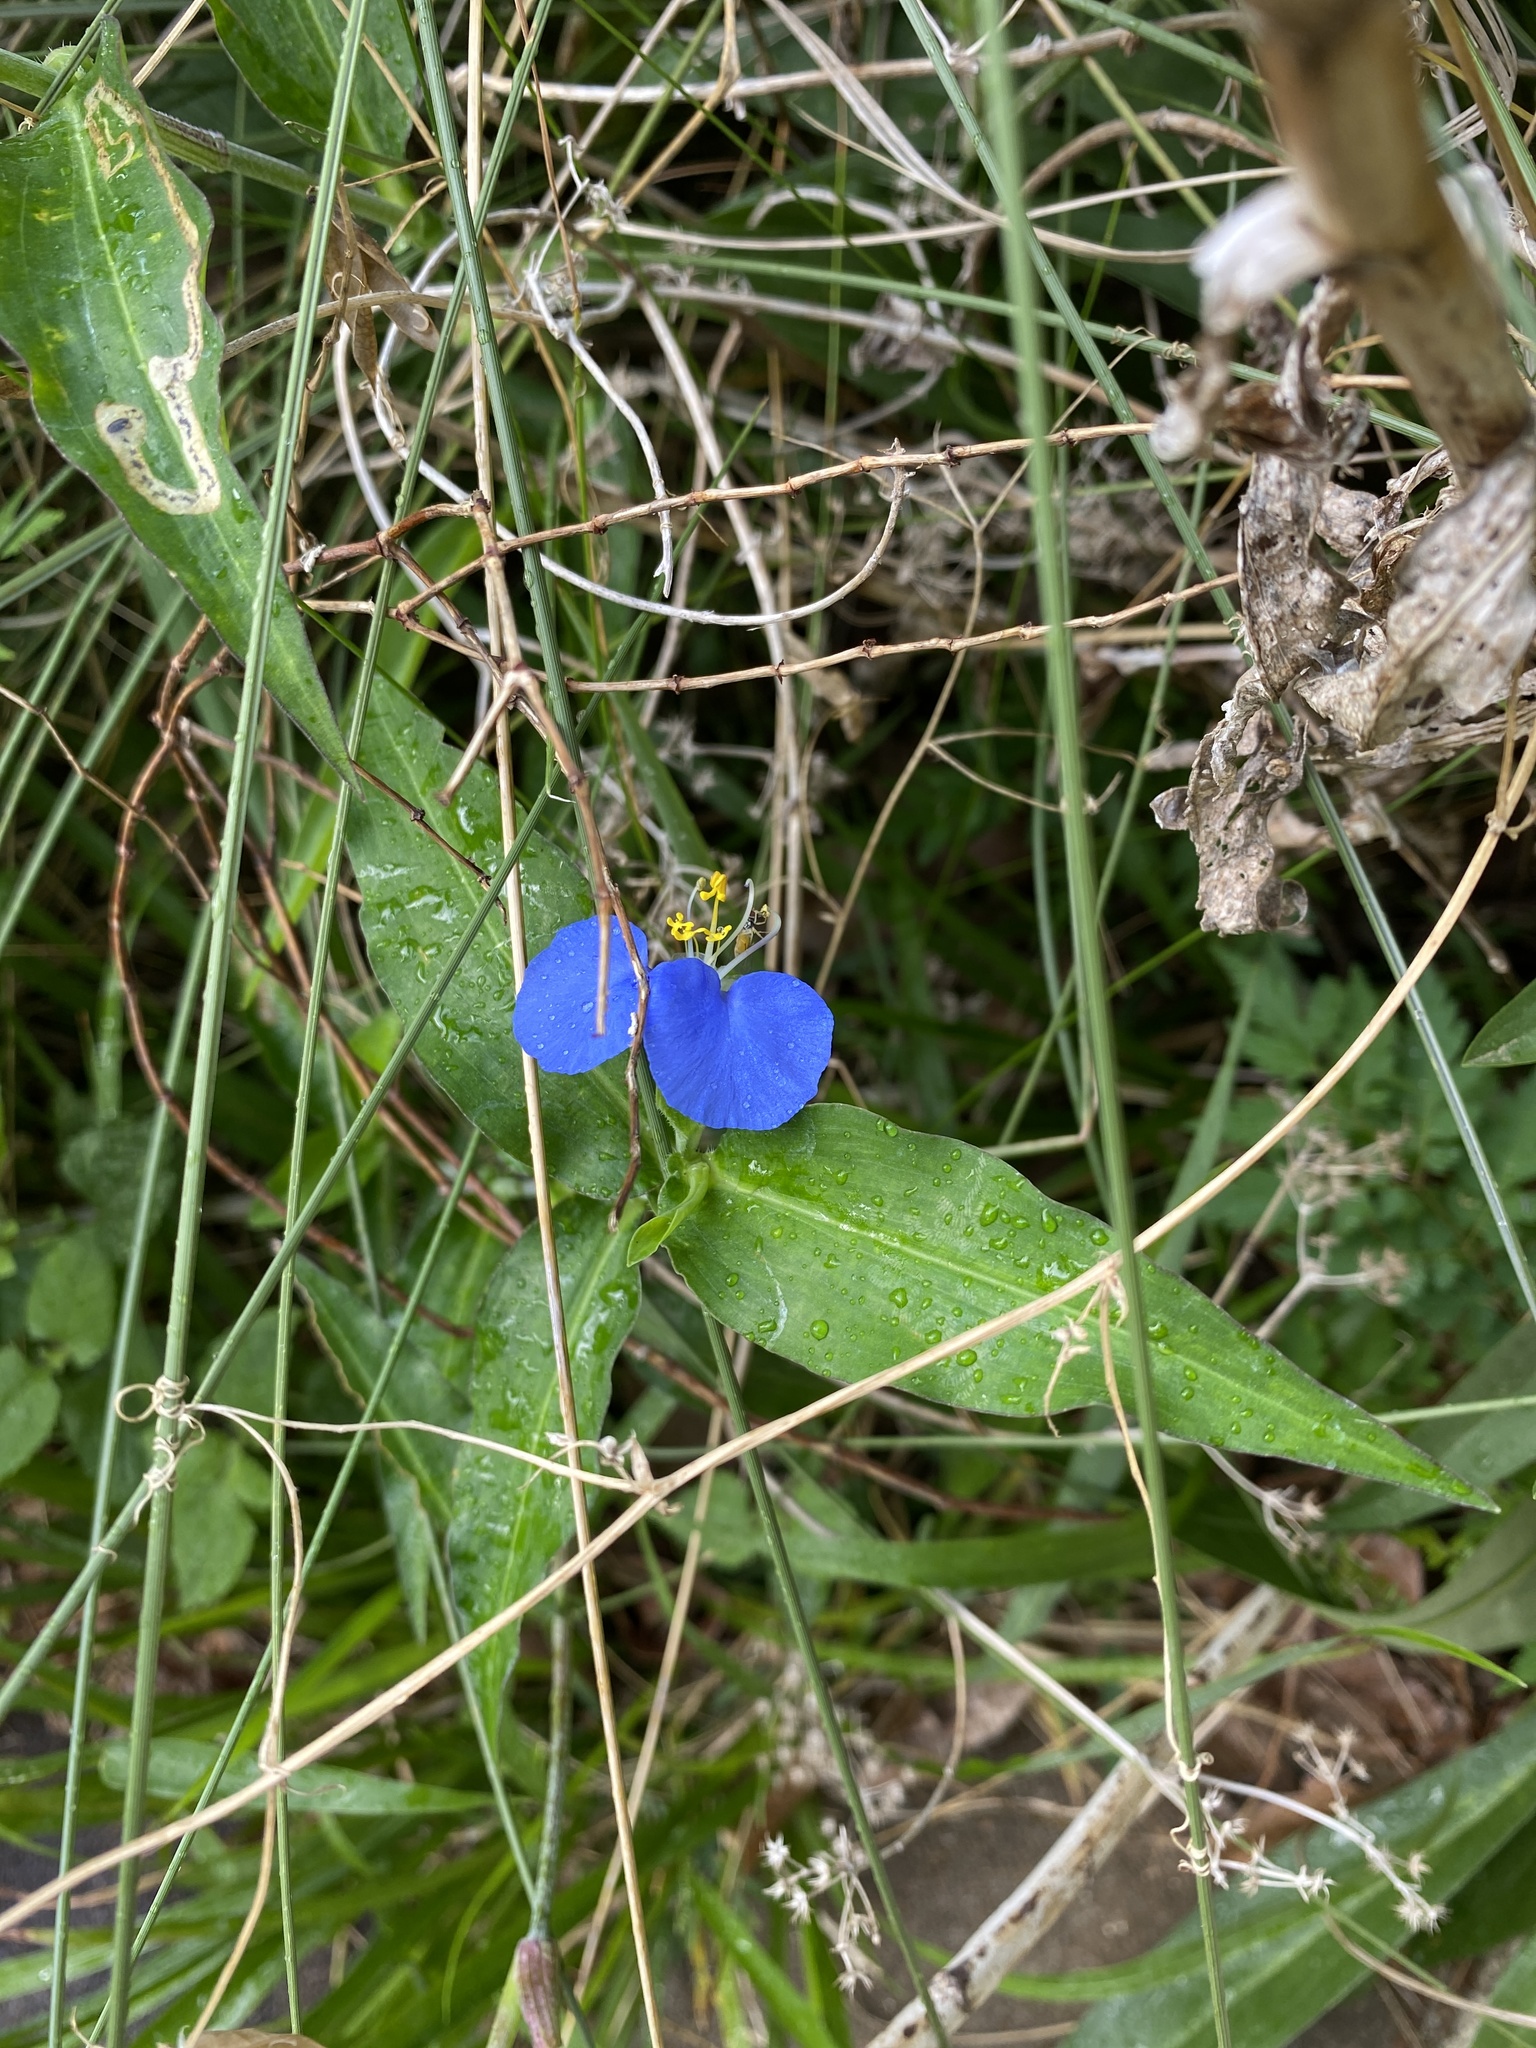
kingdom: Plantae
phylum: Tracheophyta
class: Liliopsida
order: Commelinales
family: Commelinaceae
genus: Commelina
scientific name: Commelina erecta
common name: Blousel blommetjie
